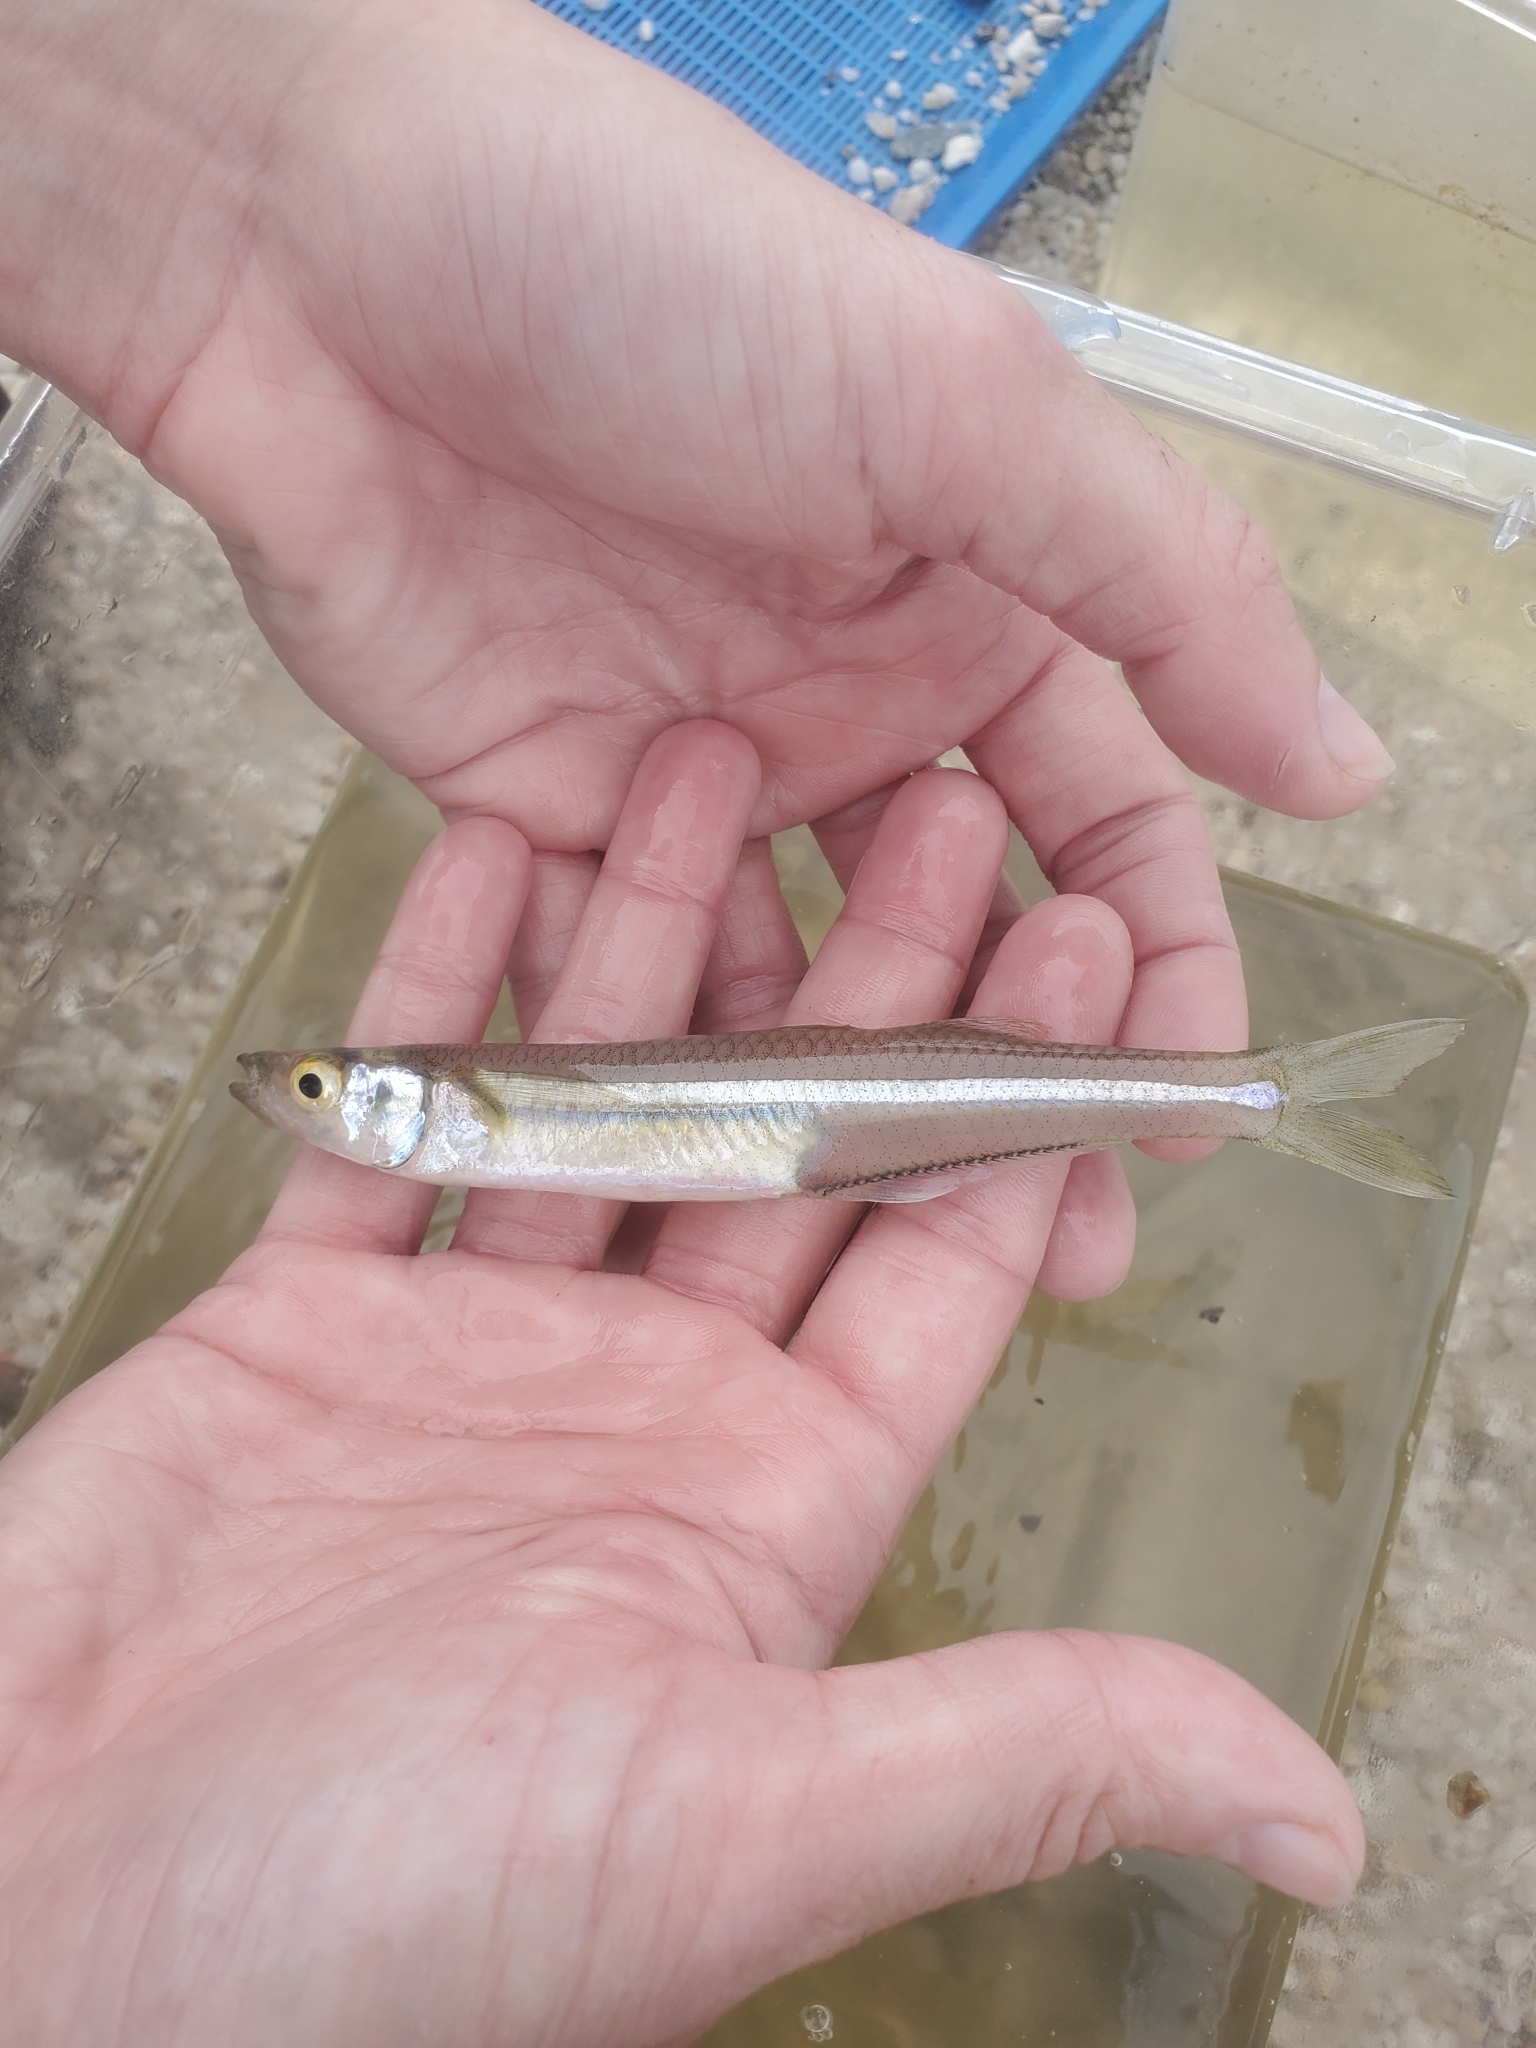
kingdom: Animalia
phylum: Chordata
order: Atheriniformes
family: Atherinopsidae
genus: Menidia
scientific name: Menidia menidia
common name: Atlantic silverside
